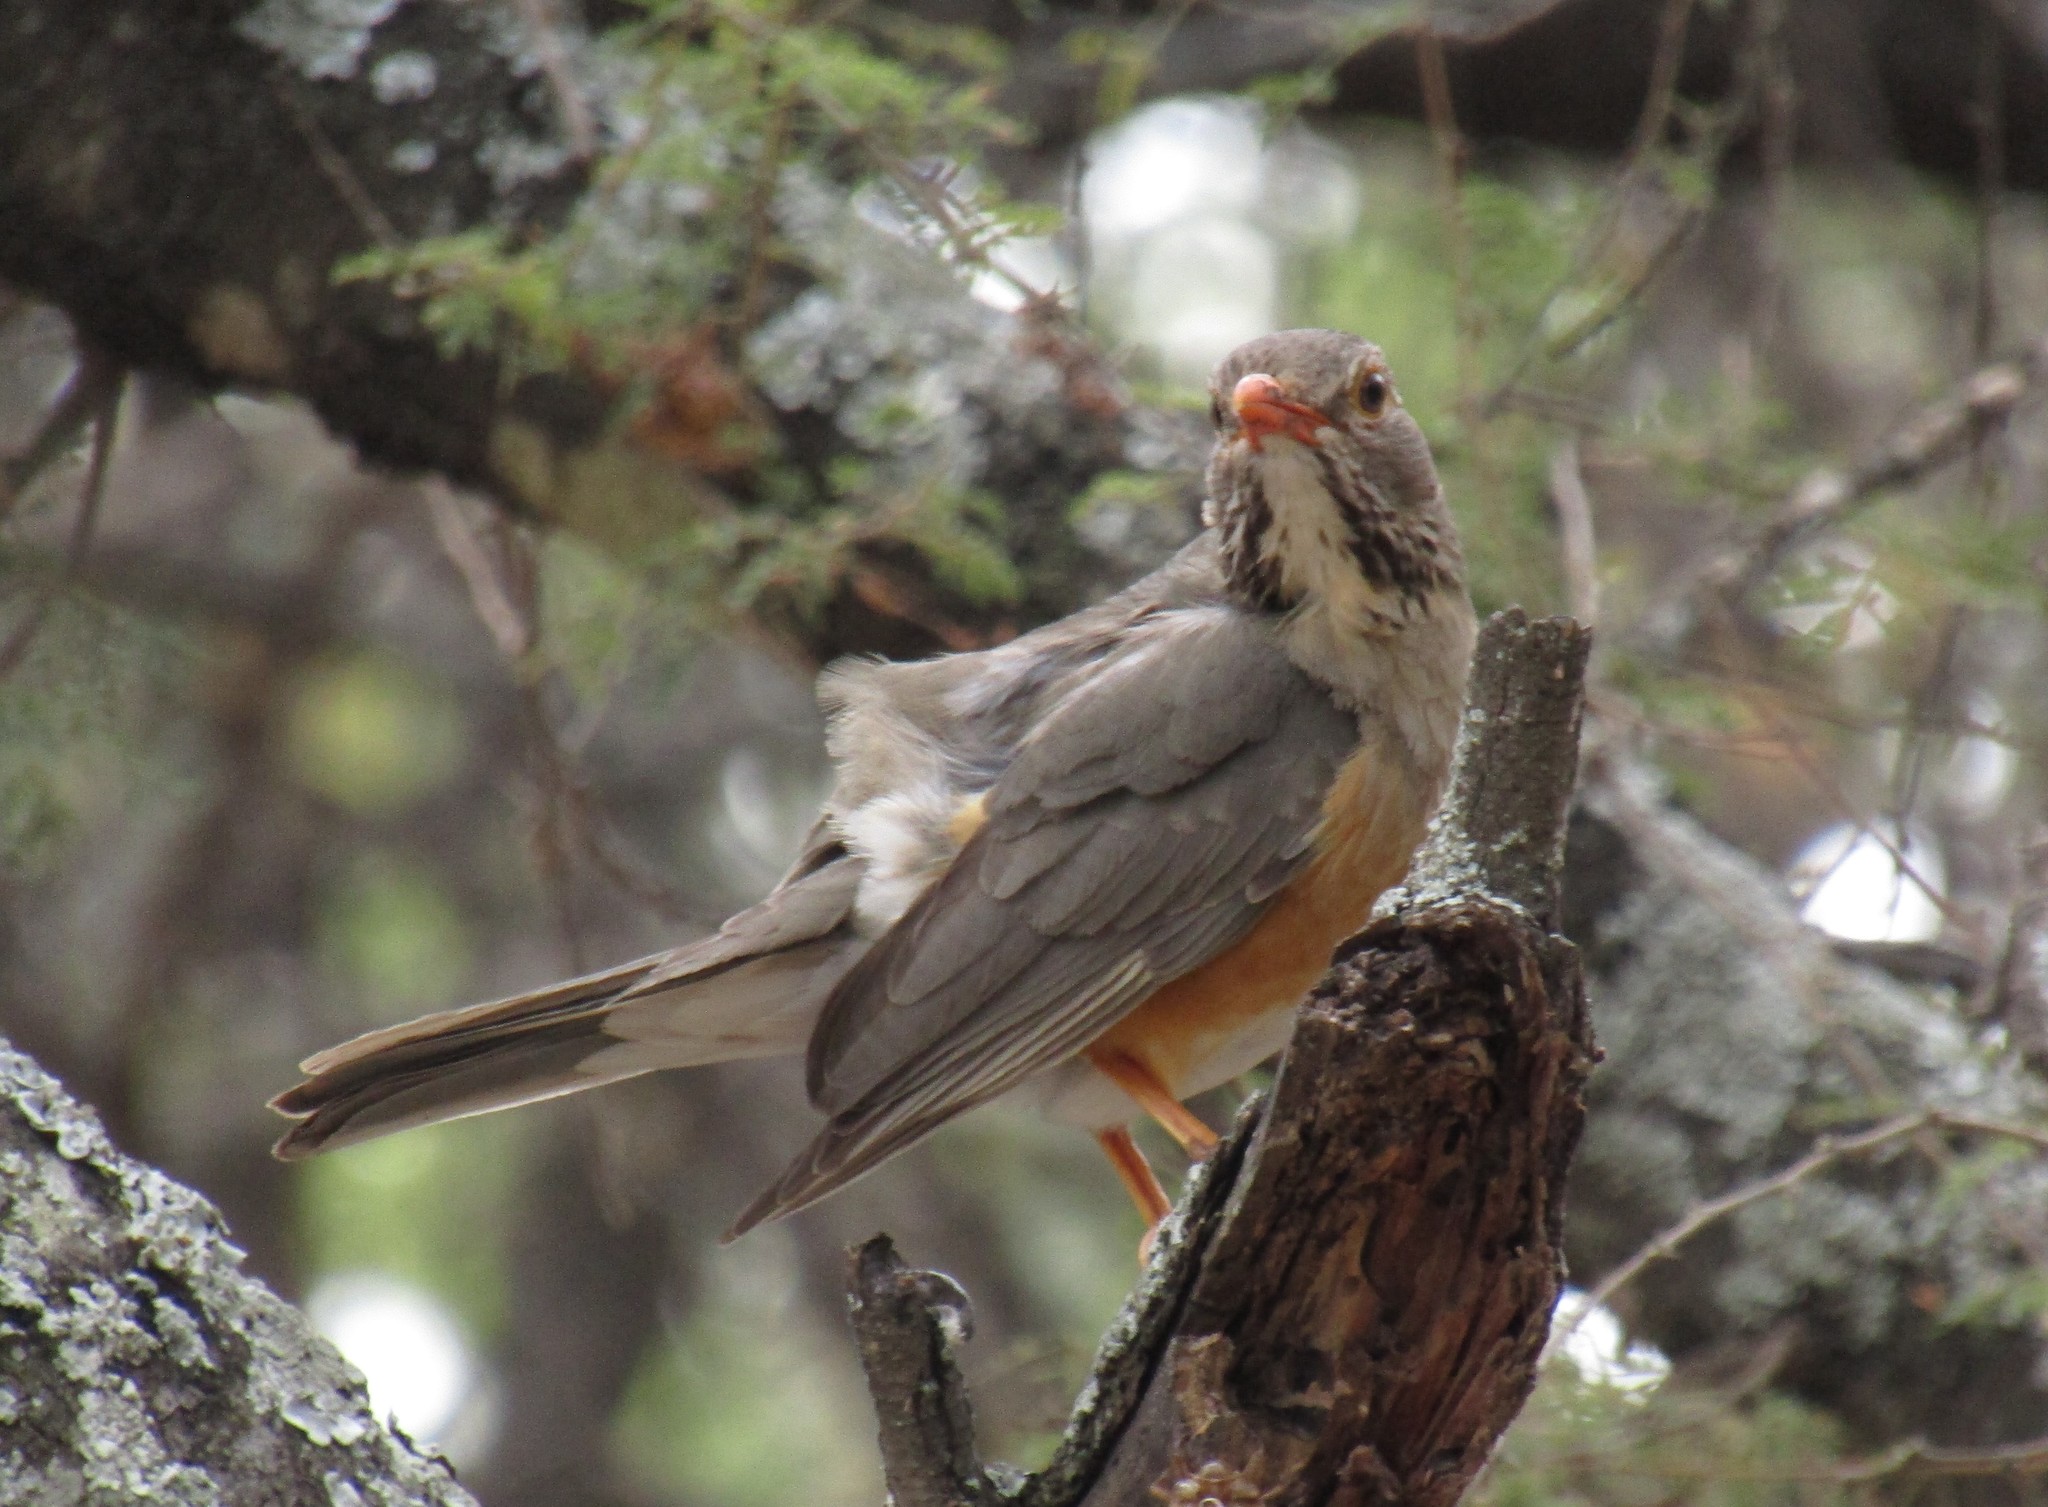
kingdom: Animalia
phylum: Chordata
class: Aves
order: Passeriformes
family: Turdidae
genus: Turdus
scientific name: Turdus libonyana
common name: Kurrichane thrush
